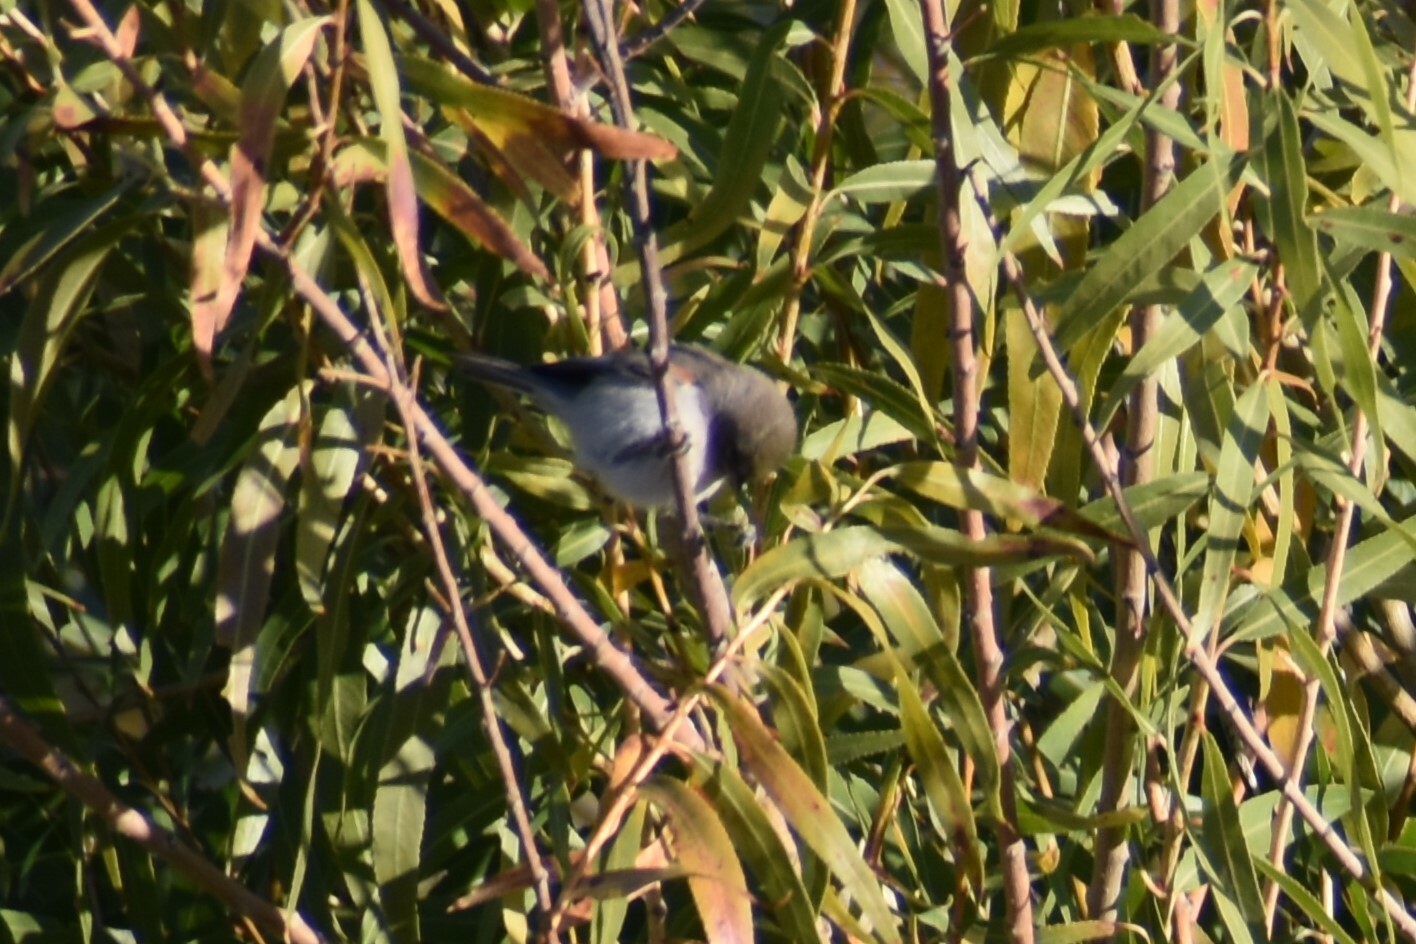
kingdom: Animalia
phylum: Chordata
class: Aves
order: Passeriformes
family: Remizidae
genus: Auriparus
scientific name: Auriparus flaviceps
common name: Verdin
